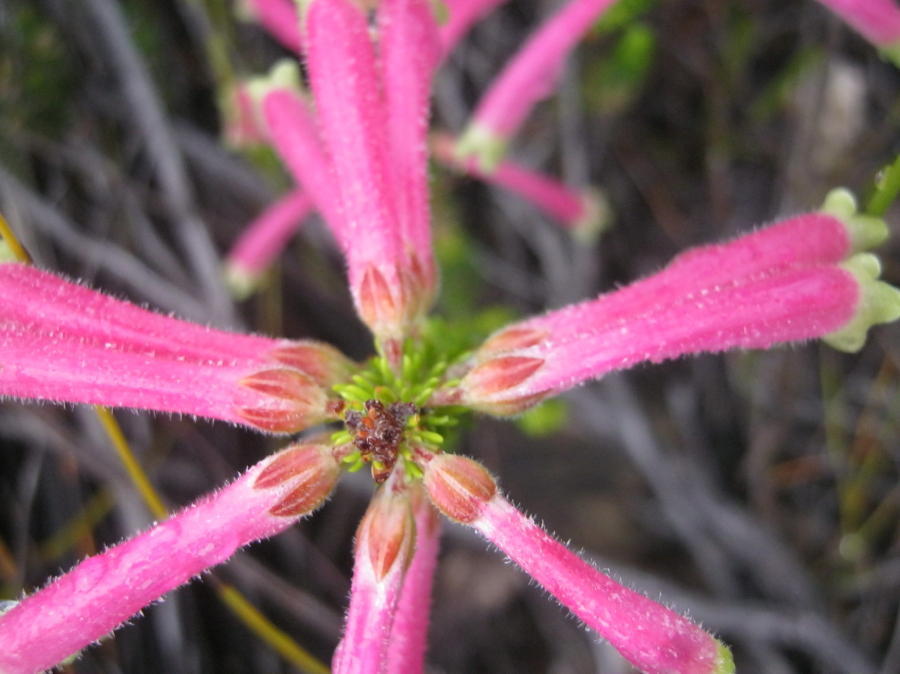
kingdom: Plantae
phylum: Tracheophyta
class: Magnoliopsida
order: Ericales
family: Ericaceae
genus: Erica
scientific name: Erica densifolia
